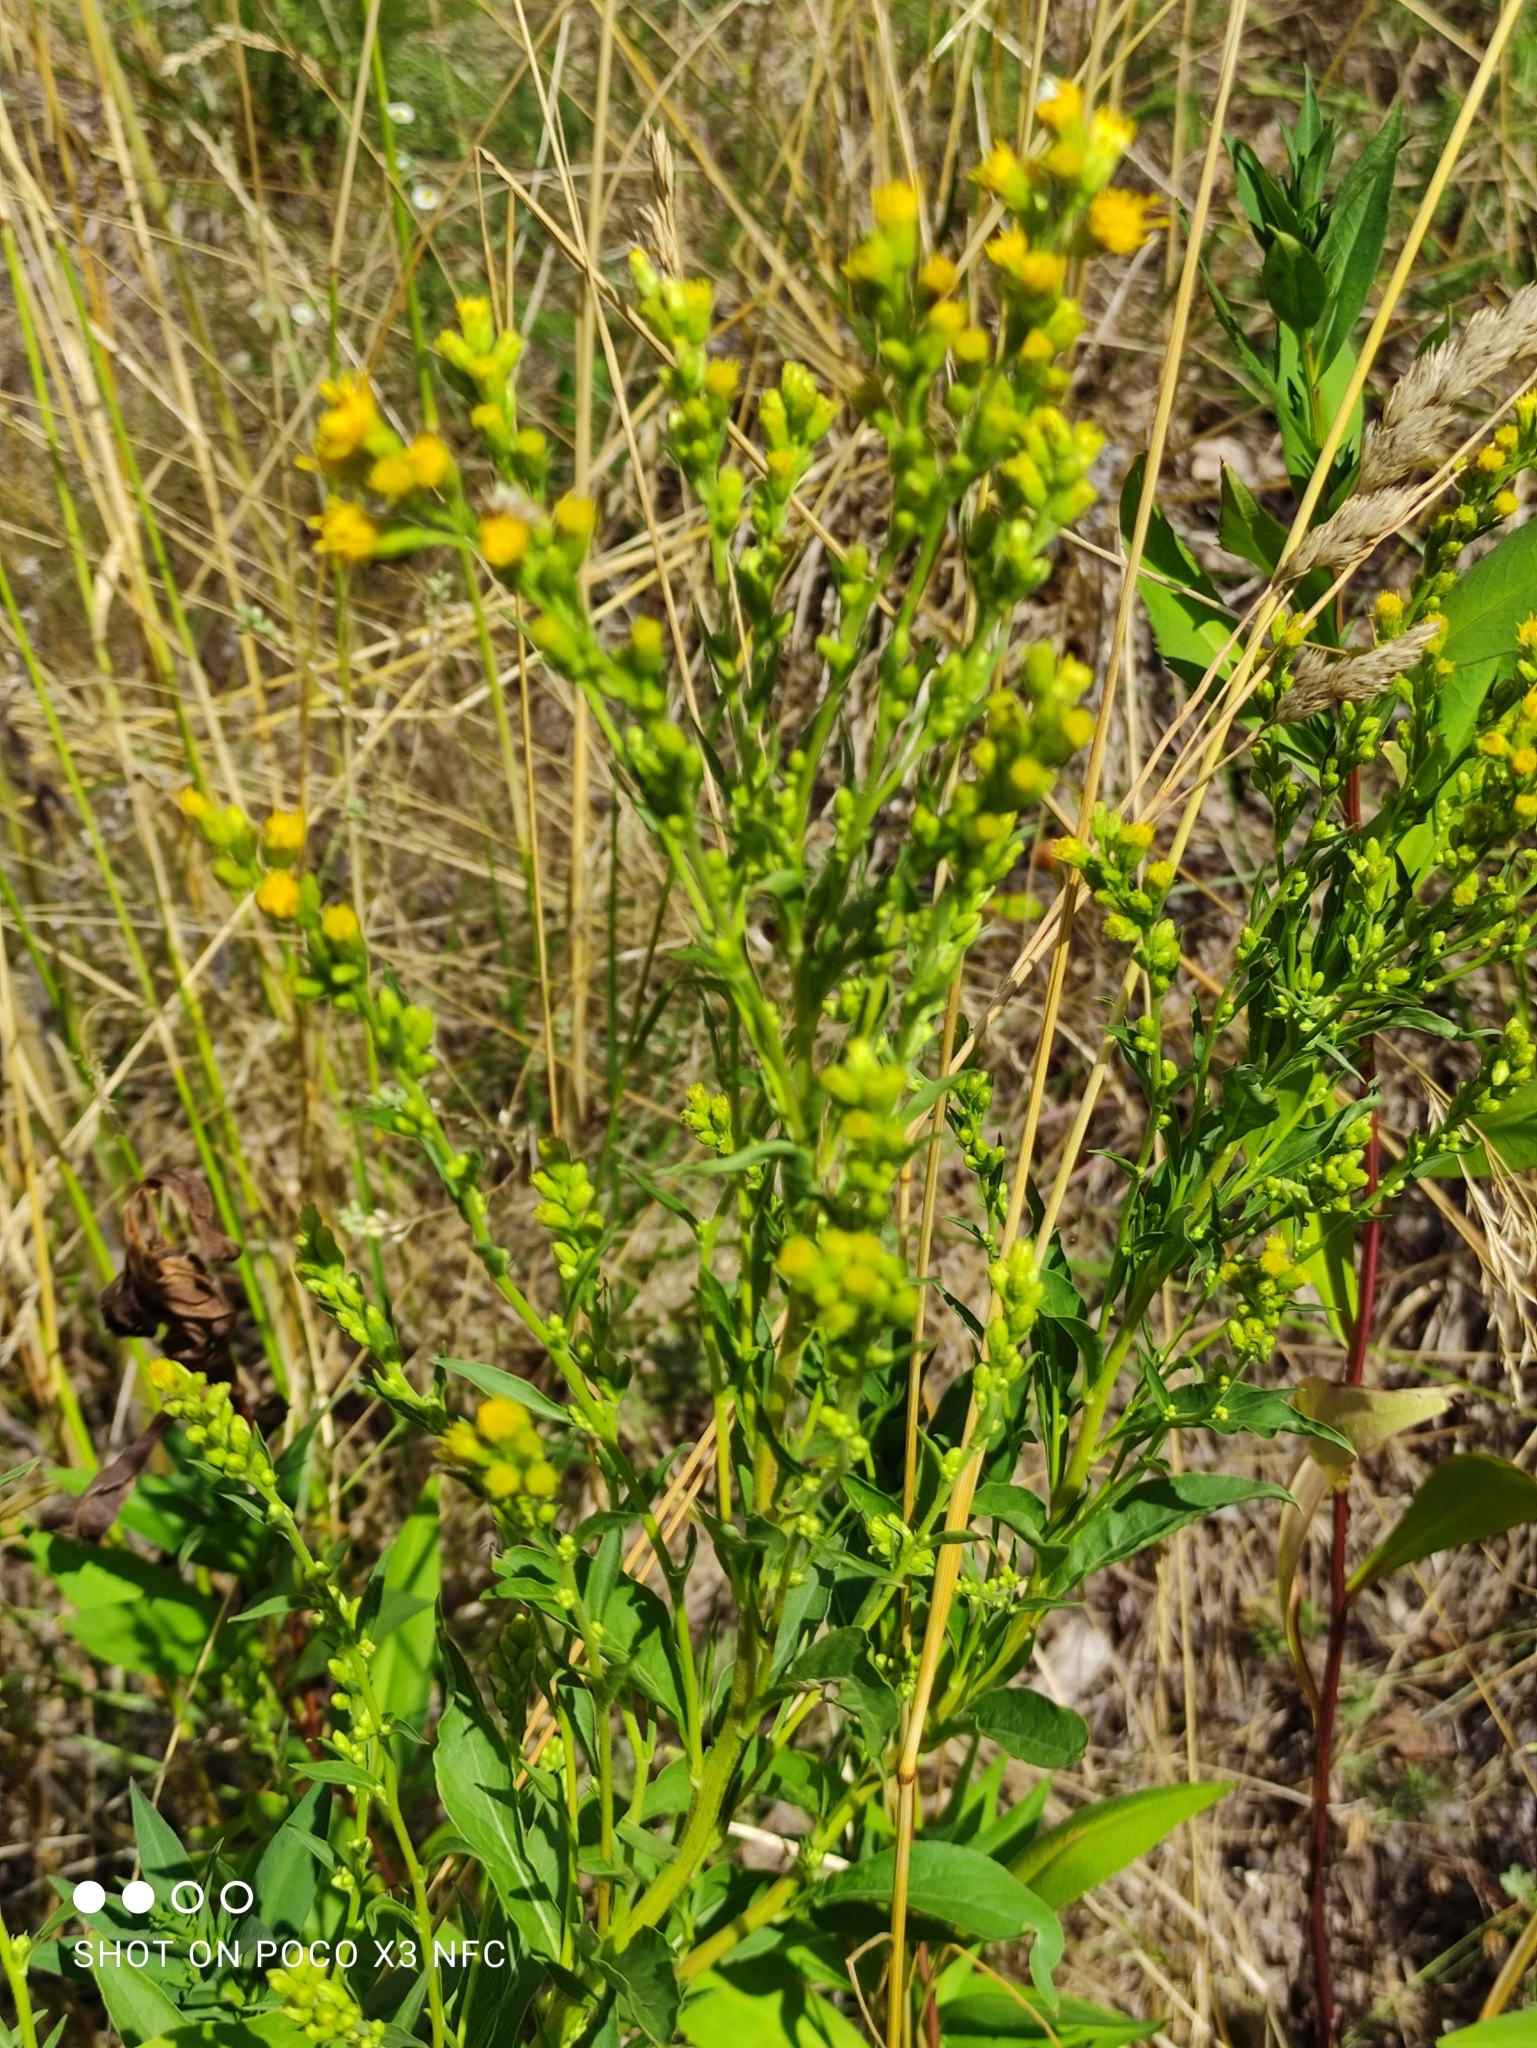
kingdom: Plantae
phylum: Tracheophyta
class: Magnoliopsida
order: Asterales
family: Asteraceae
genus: Solidago
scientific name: Solidago virgaurea
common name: Goldenrod
